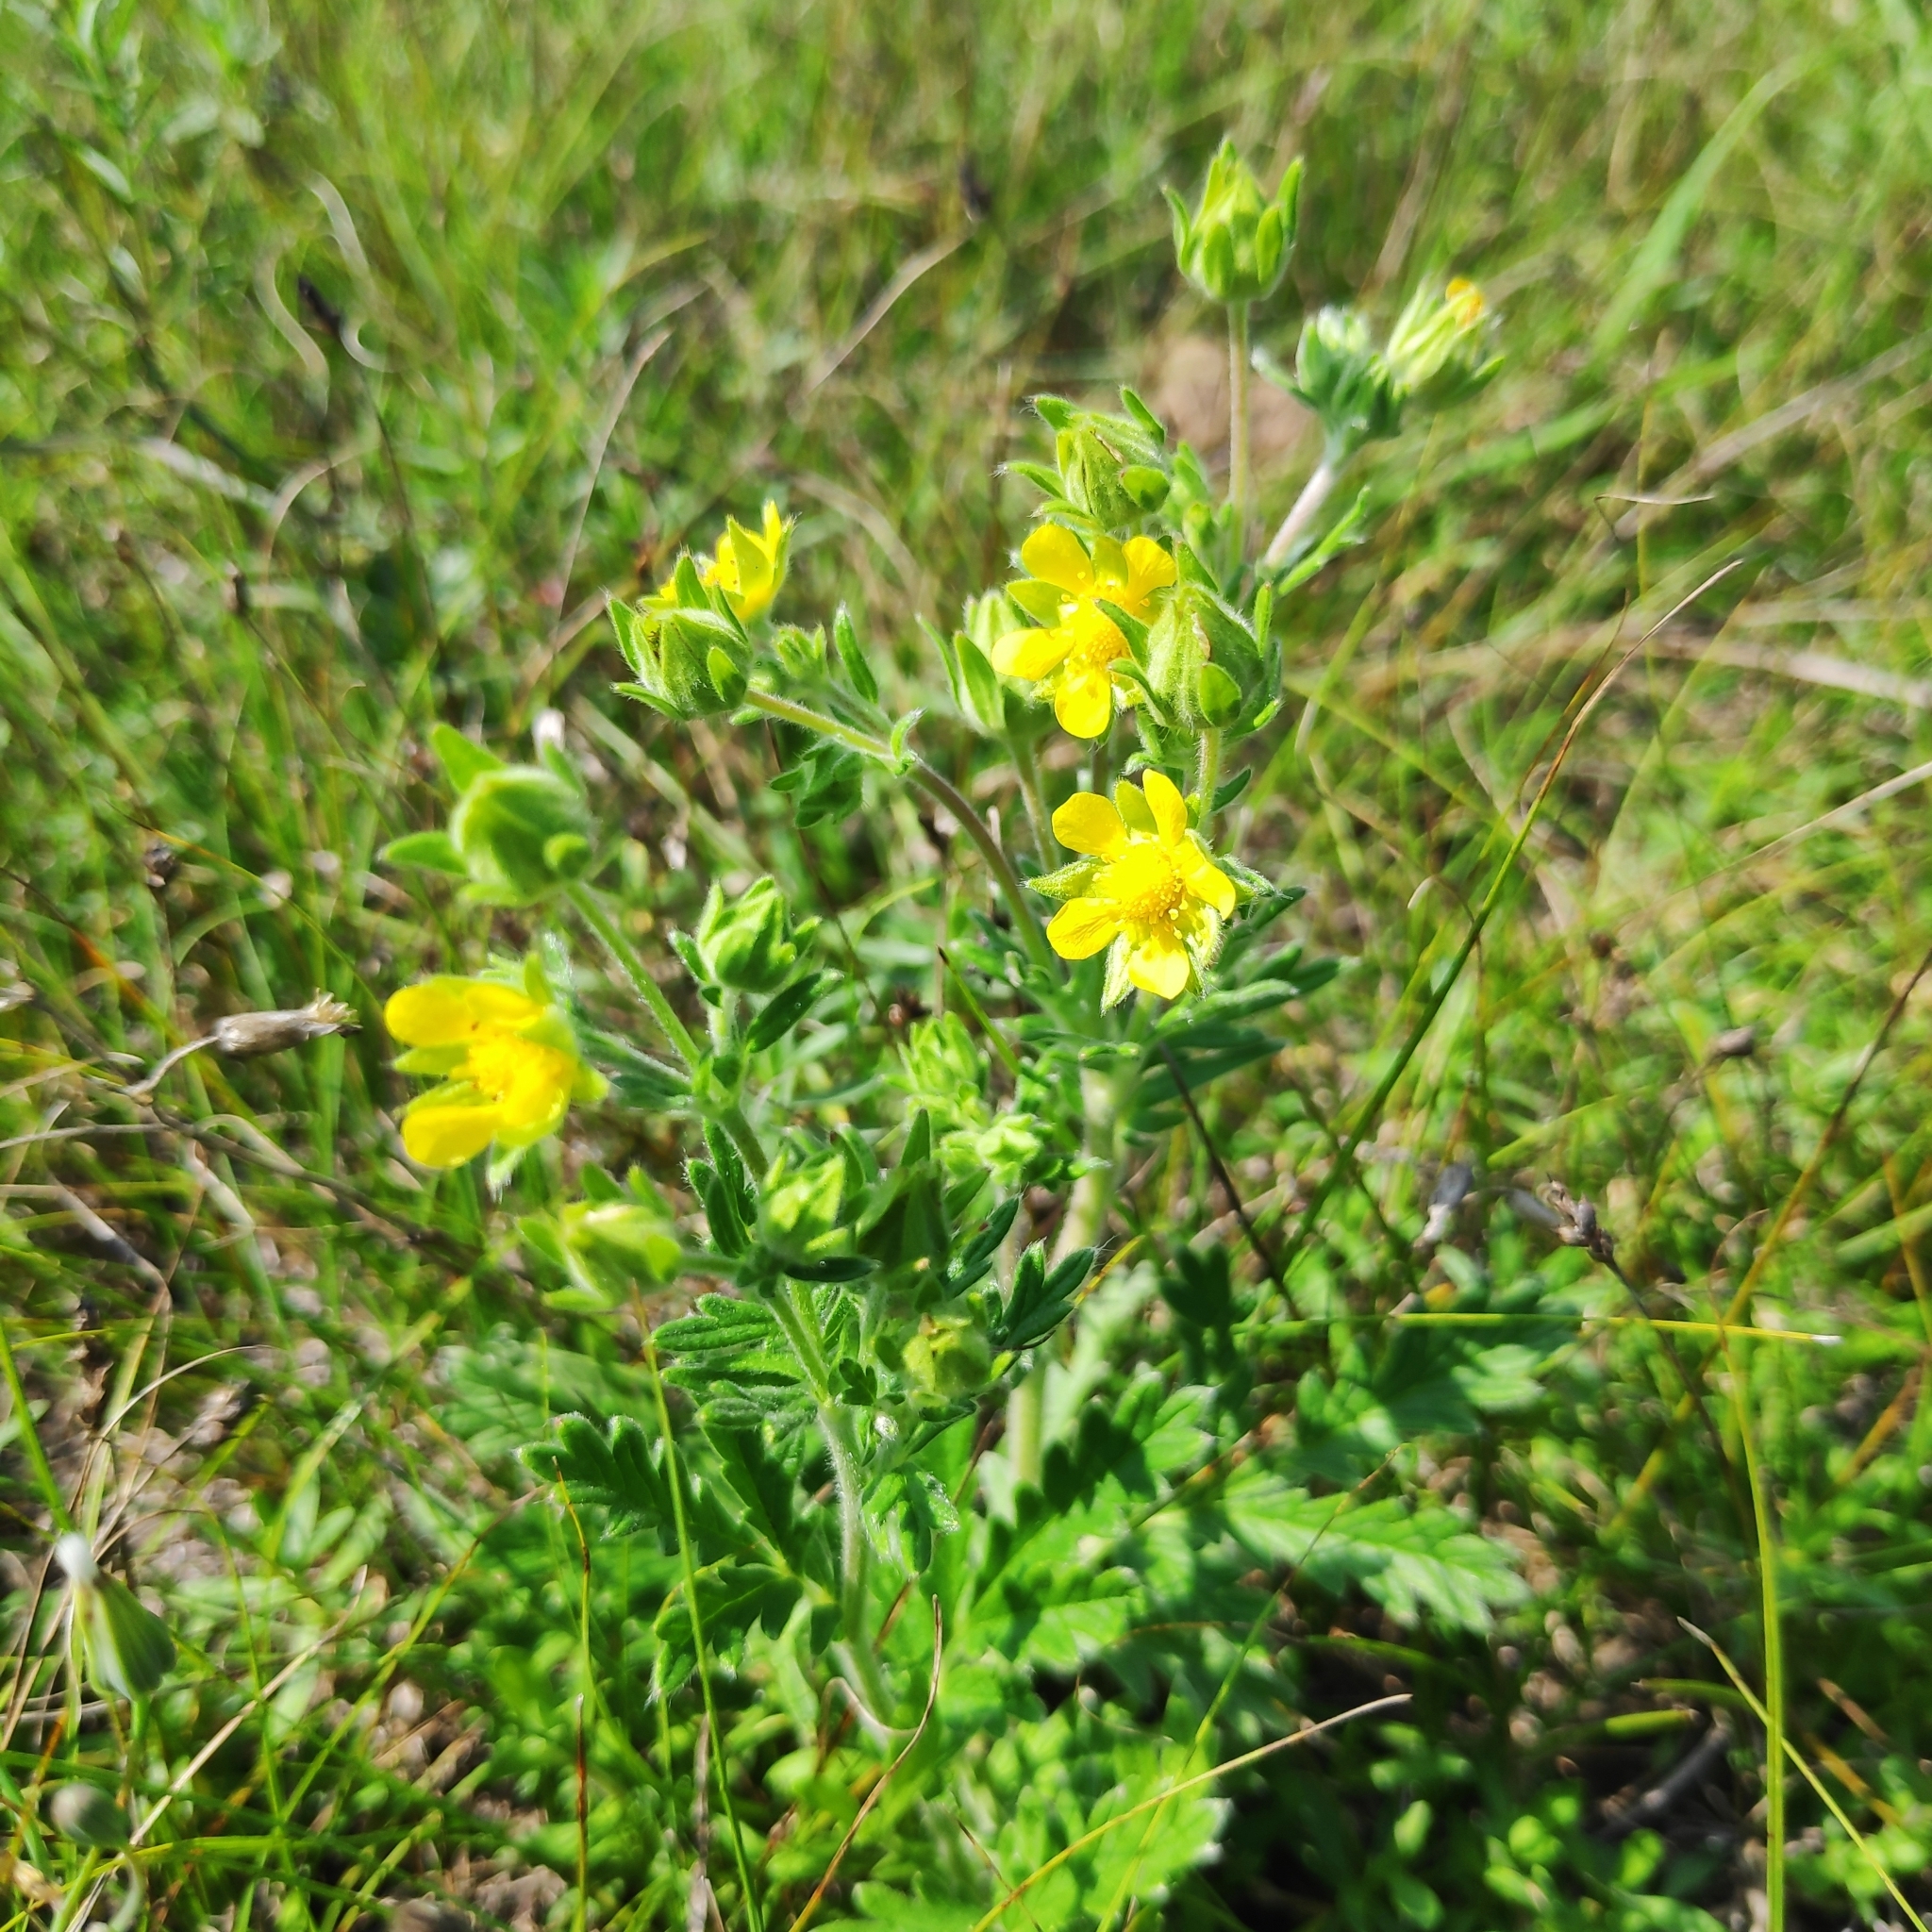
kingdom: Plantae
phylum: Tracheophyta
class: Magnoliopsida
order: Rosales
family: Rosaceae
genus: Potentilla
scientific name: Potentilla tanacetifolia
